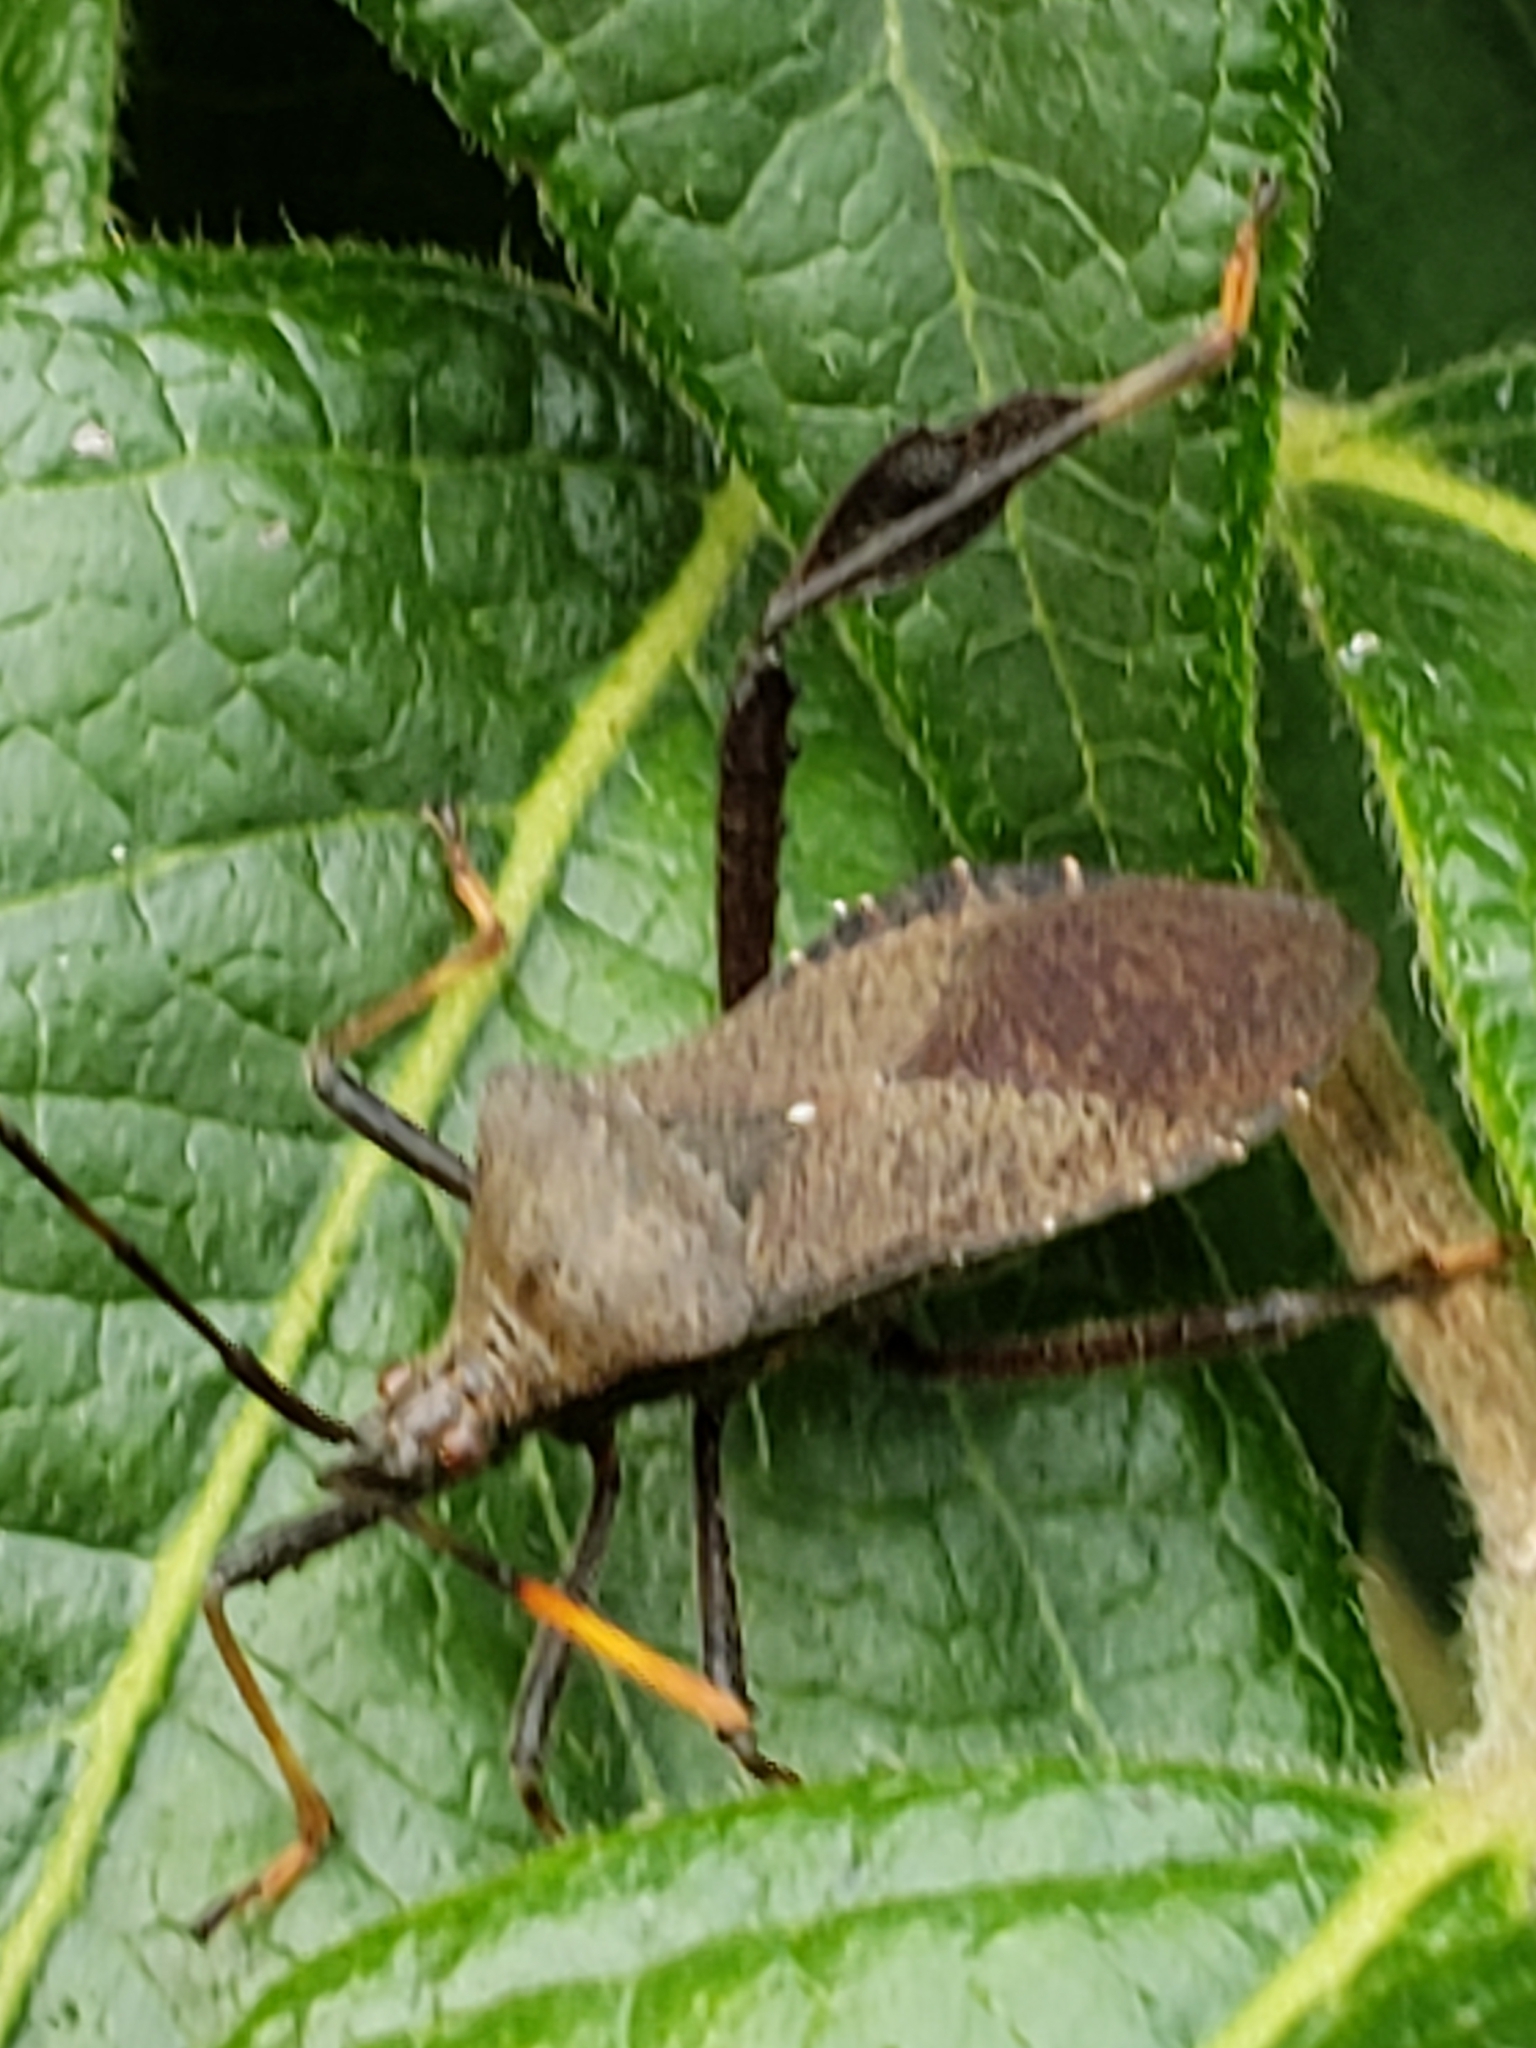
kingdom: Animalia
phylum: Arthropoda
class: Insecta
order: Hemiptera
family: Coreidae
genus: Acanthocephala
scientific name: Acanthocephala terminalis
